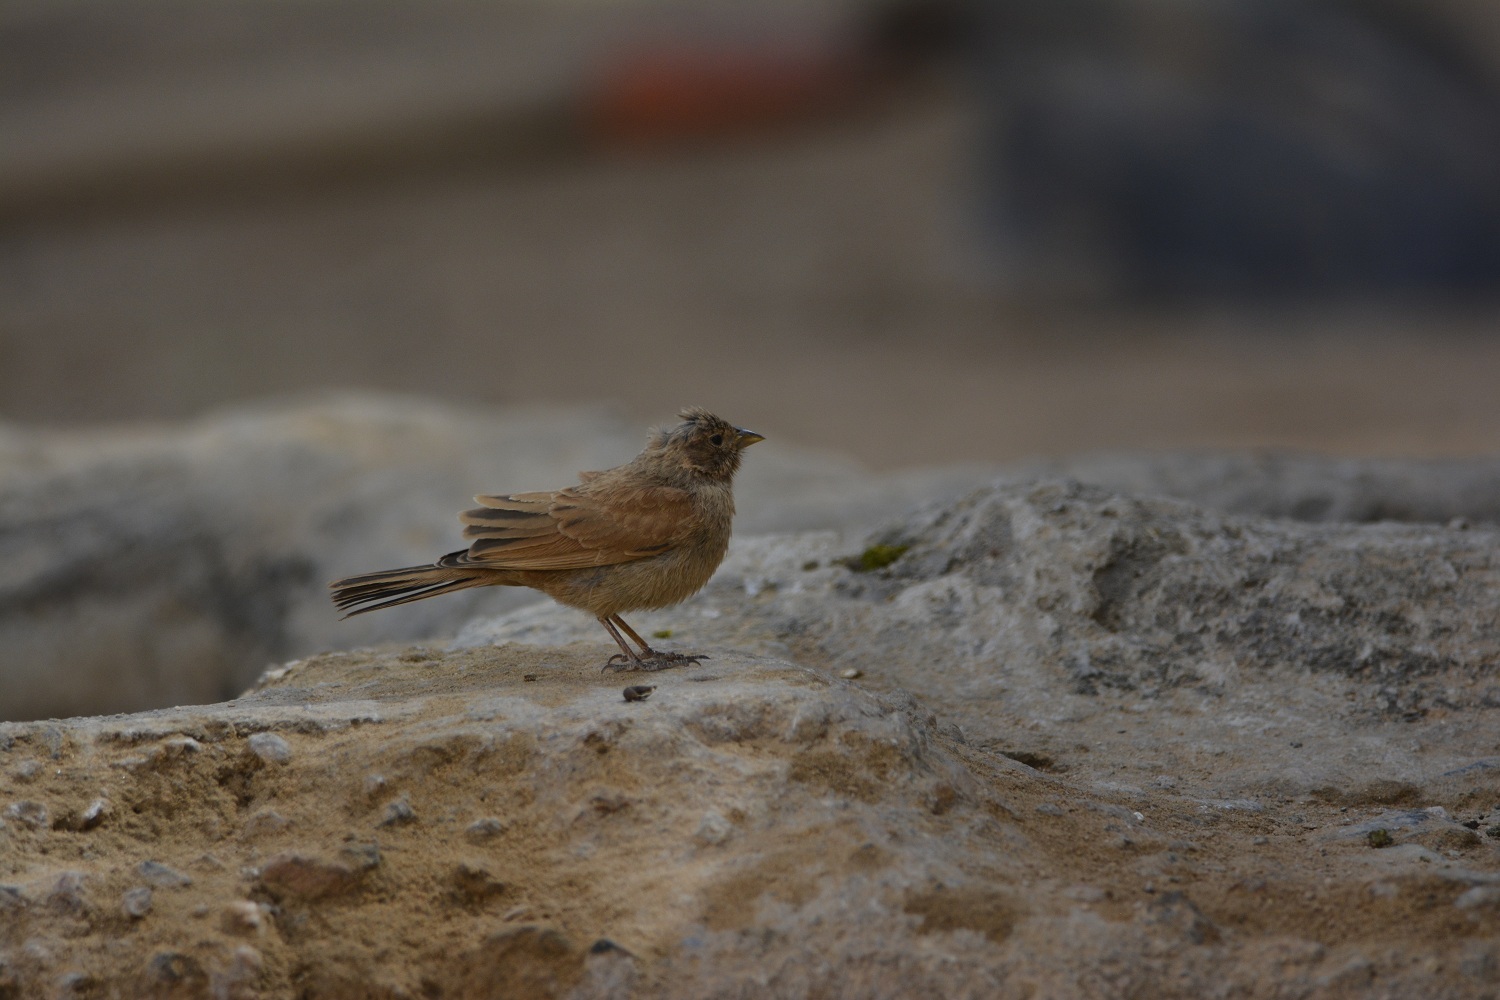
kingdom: Animalia
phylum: Chordata
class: Aves
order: Passeriformes
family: Emberizidae
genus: Emberiza
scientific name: Emberiza sahari
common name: House bunting
